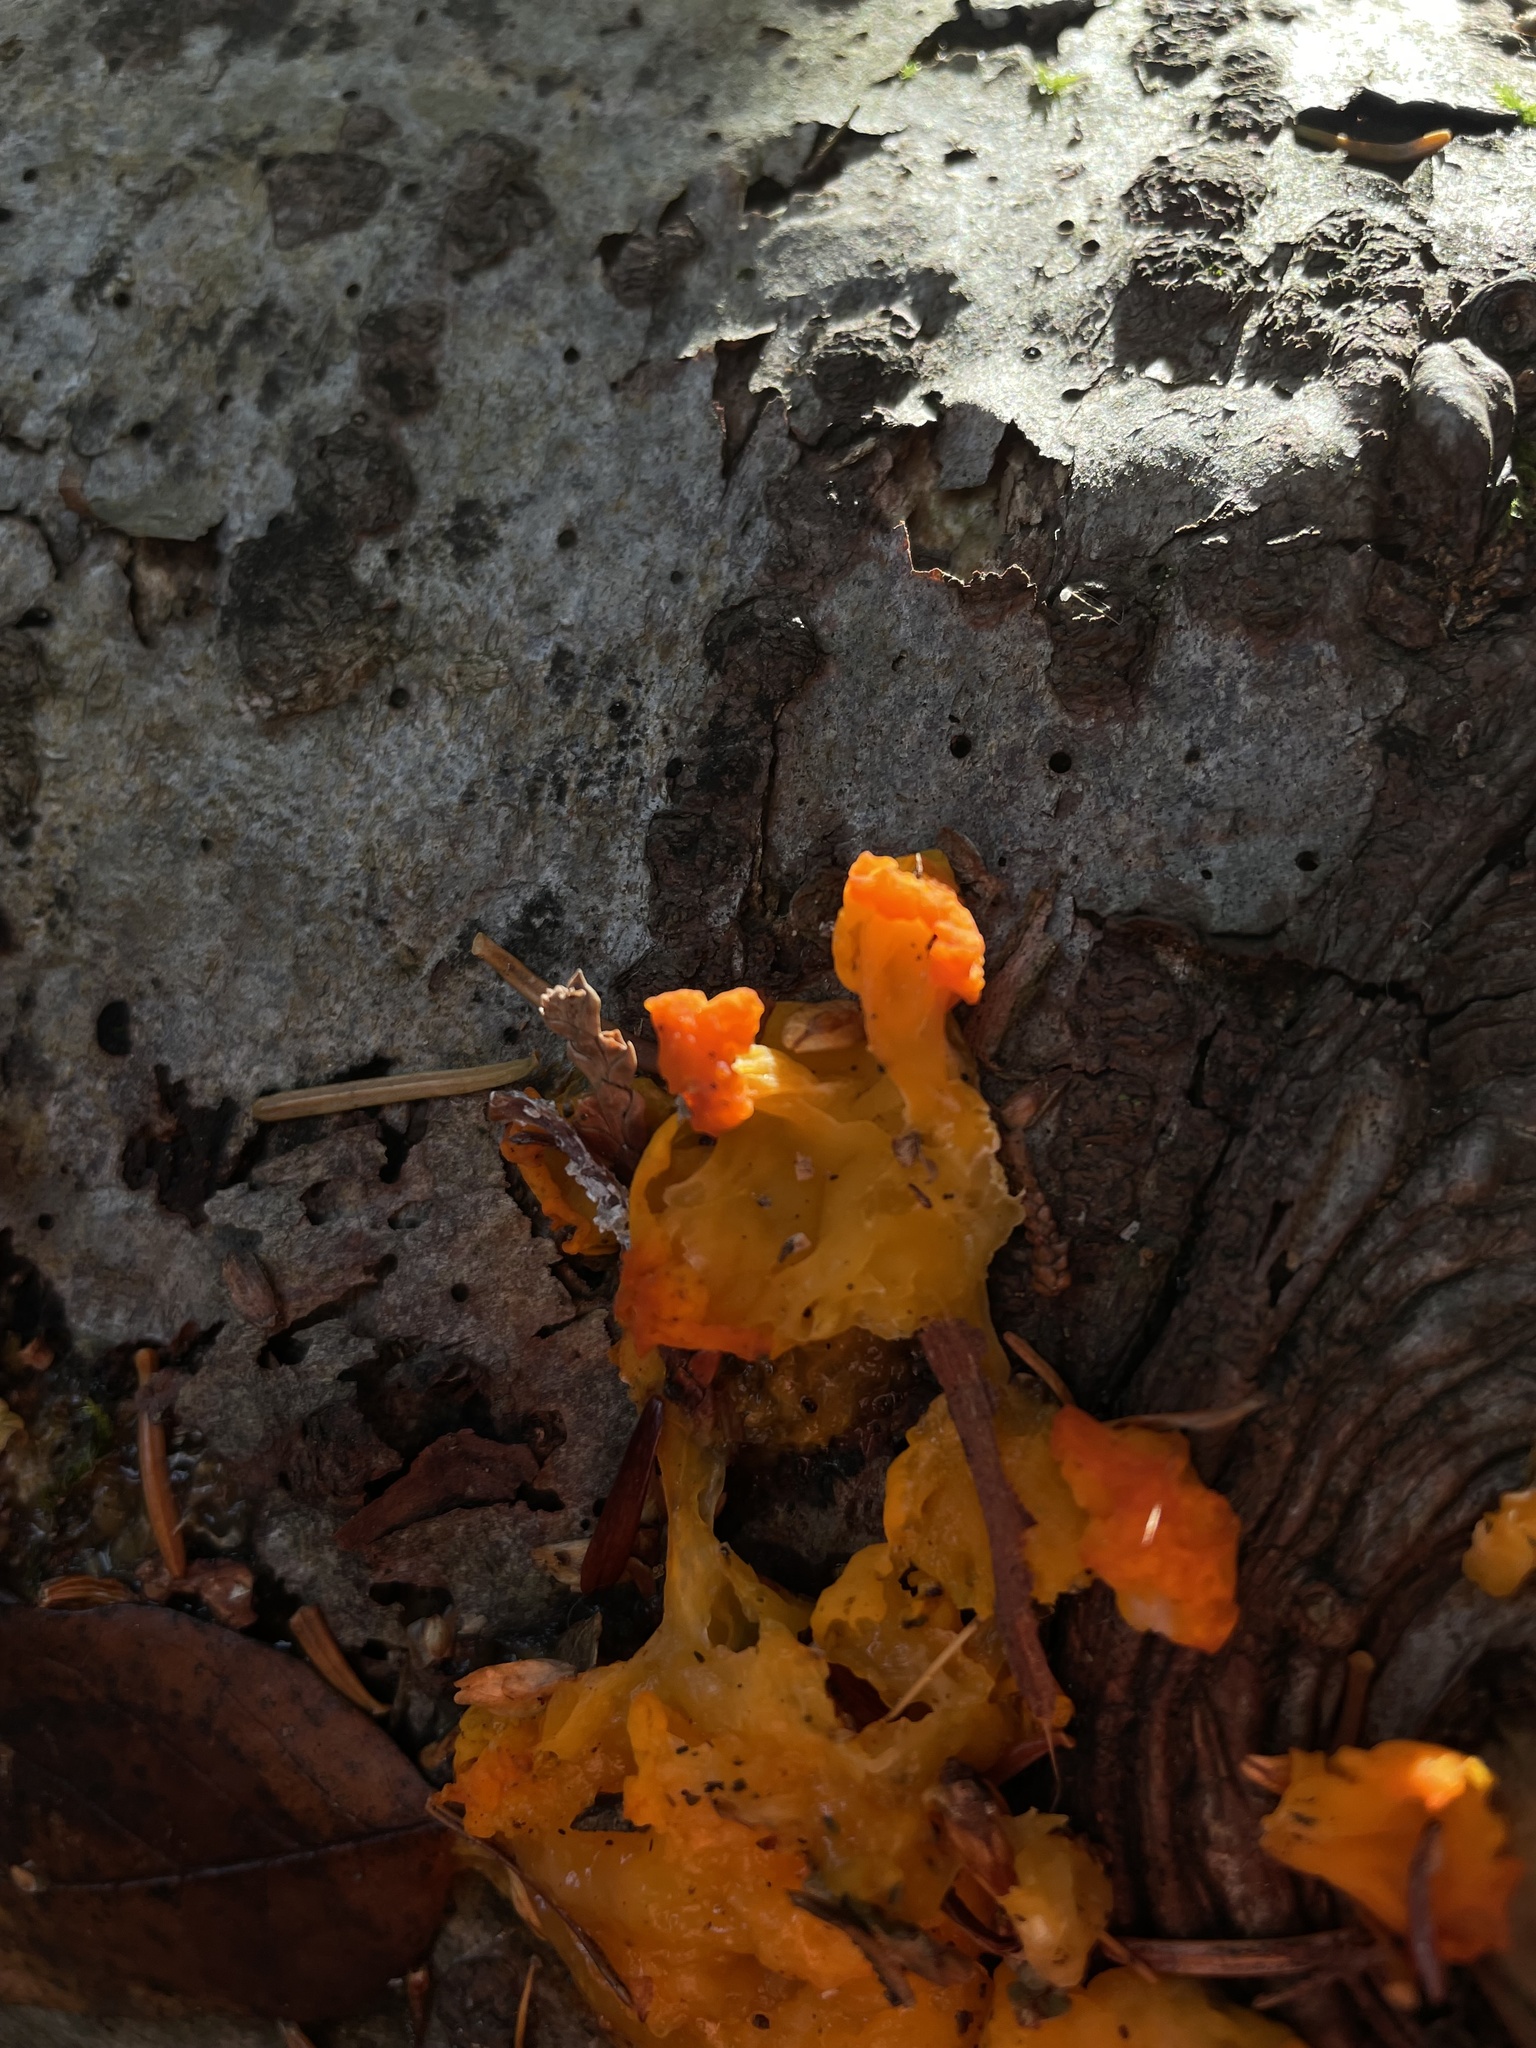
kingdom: Fungi
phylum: Basidiomycota
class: Dacrymycetes
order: Dacrymycetales
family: Dacrymycetaceae
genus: Dacrymyces
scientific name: Dacrymyces chrysospermus
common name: Orange jelly spot
